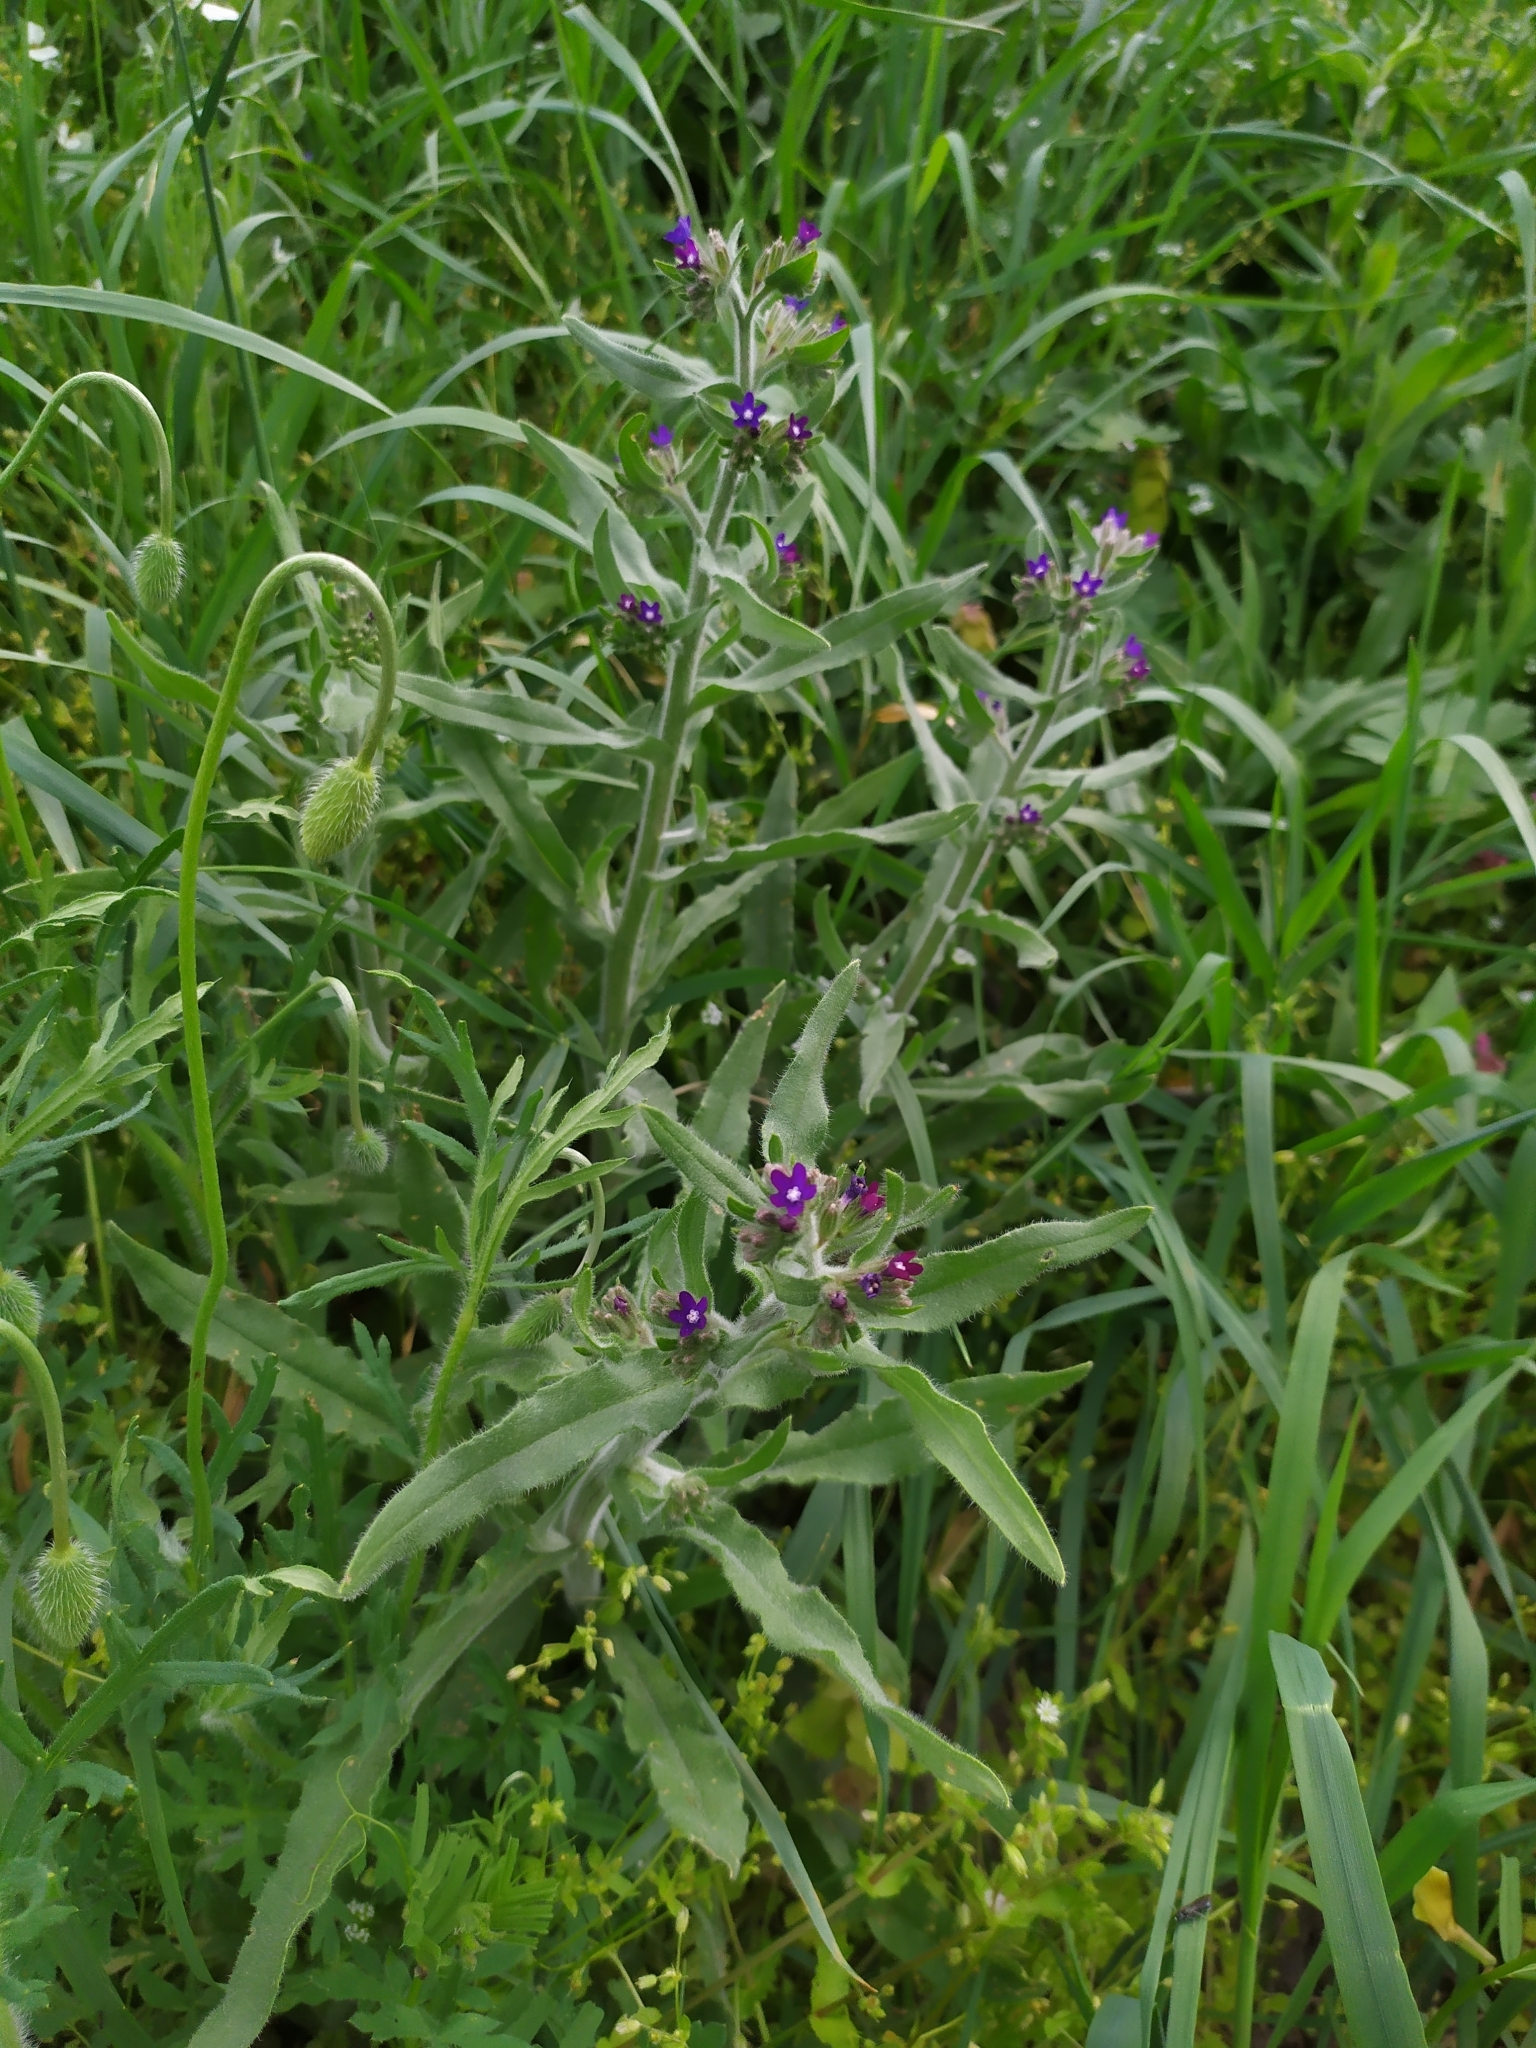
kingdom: Plantae
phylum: Tracheophyta
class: Magnoliopsida
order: Boraginales
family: Boraginaceae
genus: Anchusa
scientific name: Anchusa officinalis
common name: Alkanet
